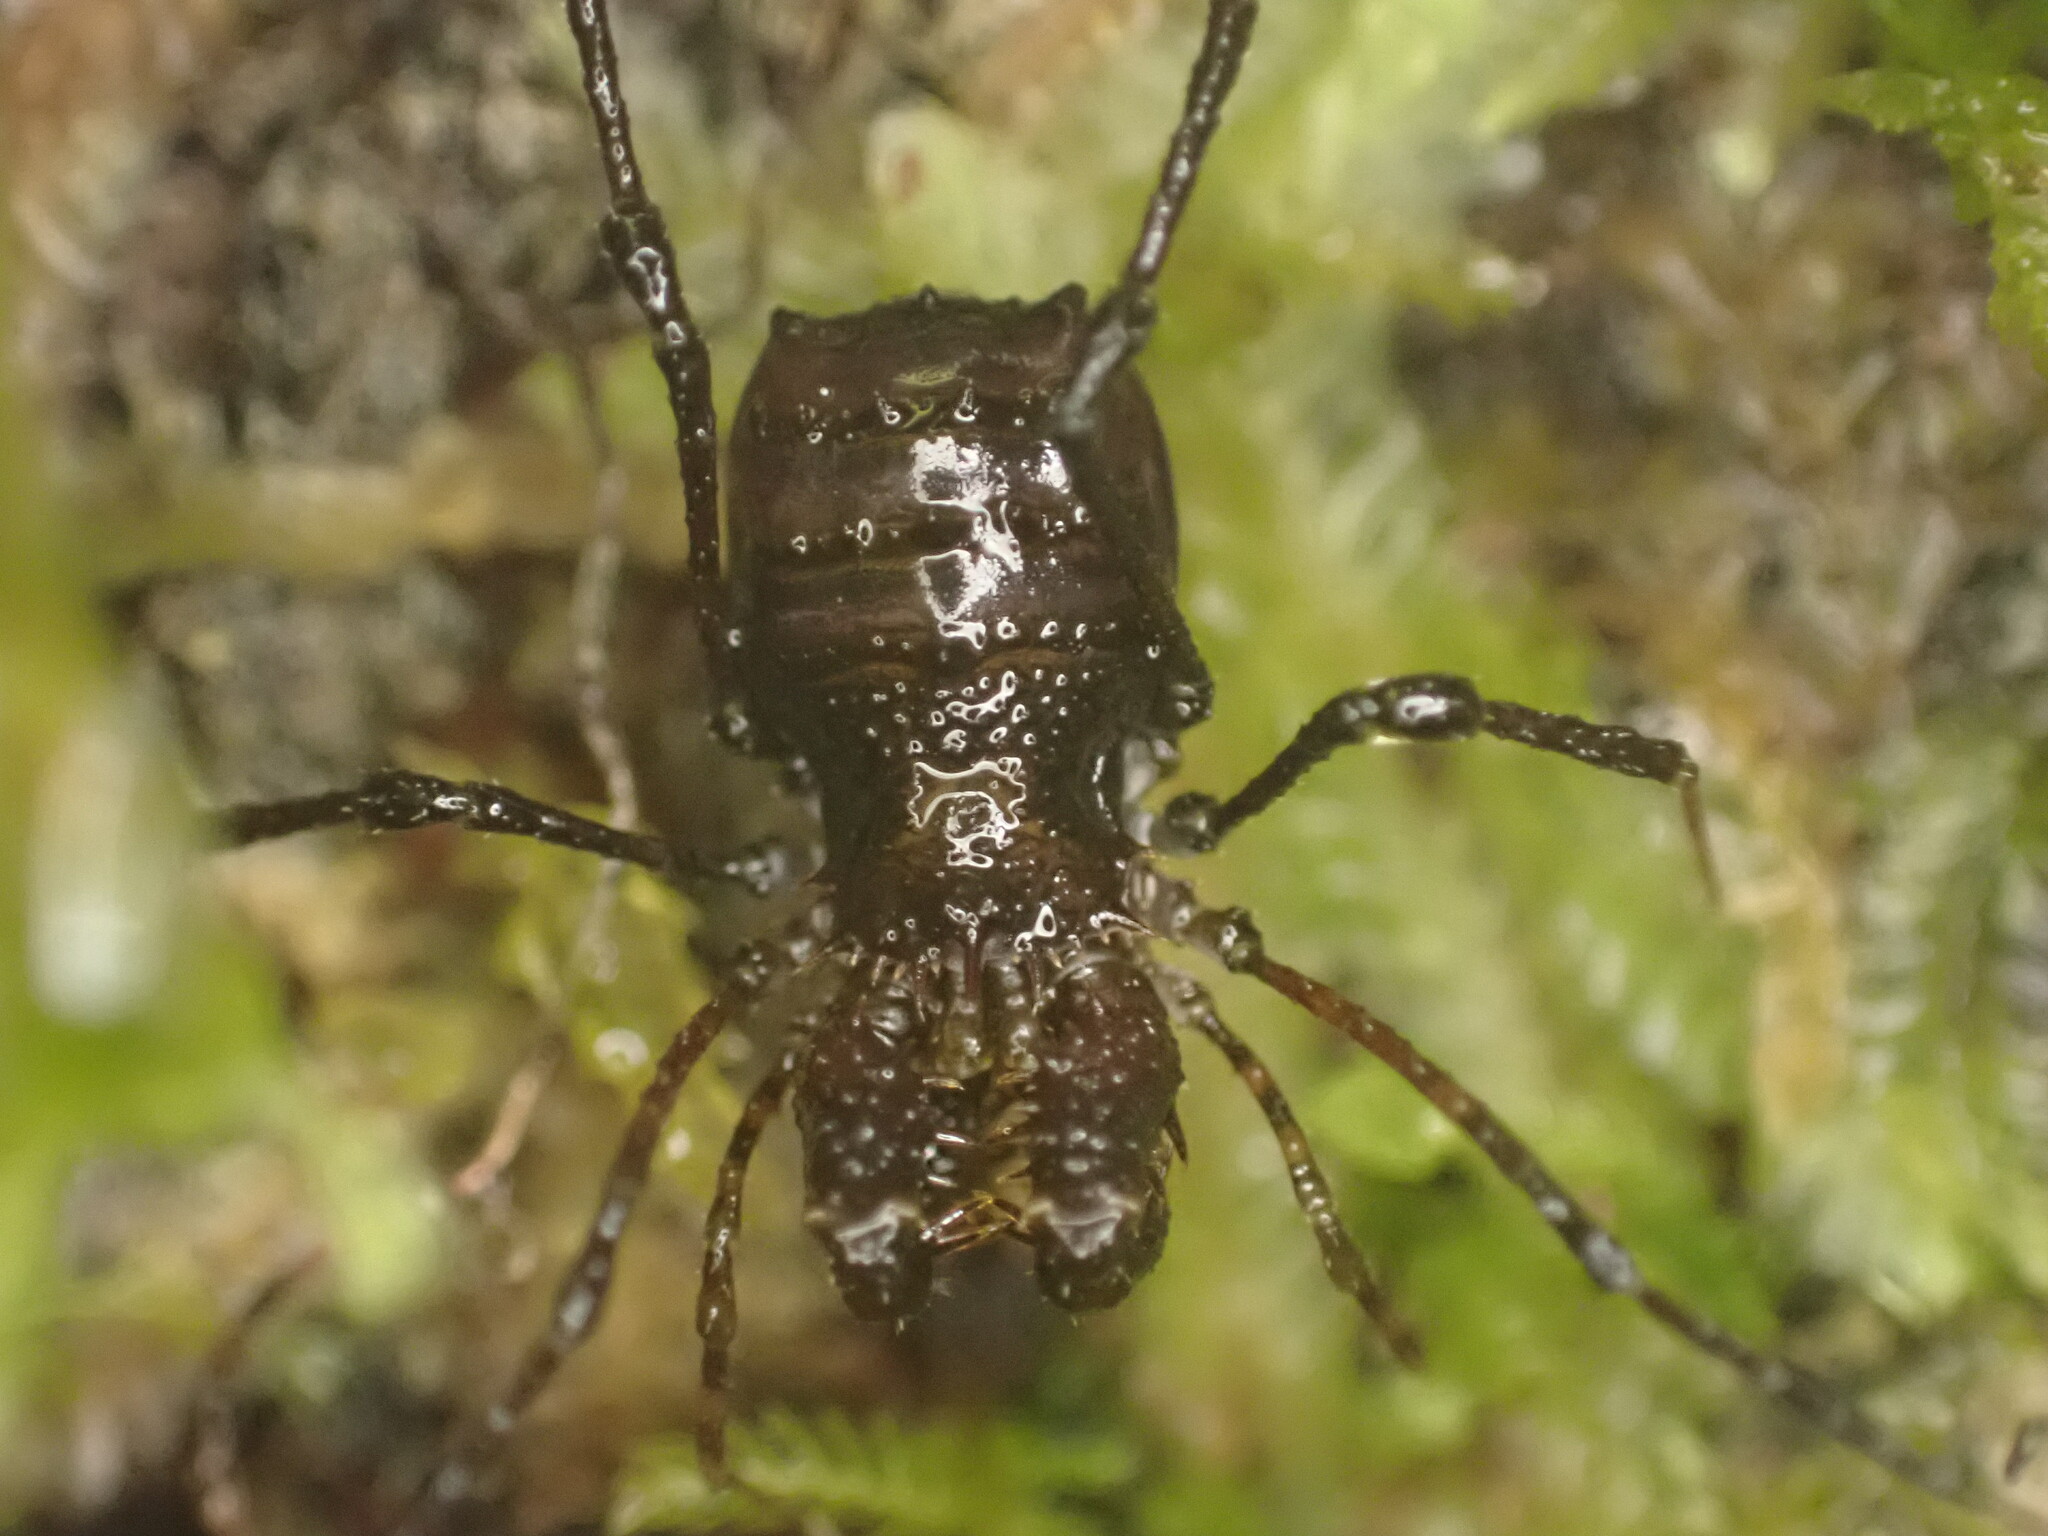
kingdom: Animalia
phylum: Arthropoda
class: Arachnida
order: Opiliones
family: Triaenonychidae
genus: Karamea
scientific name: Karamea lobata
